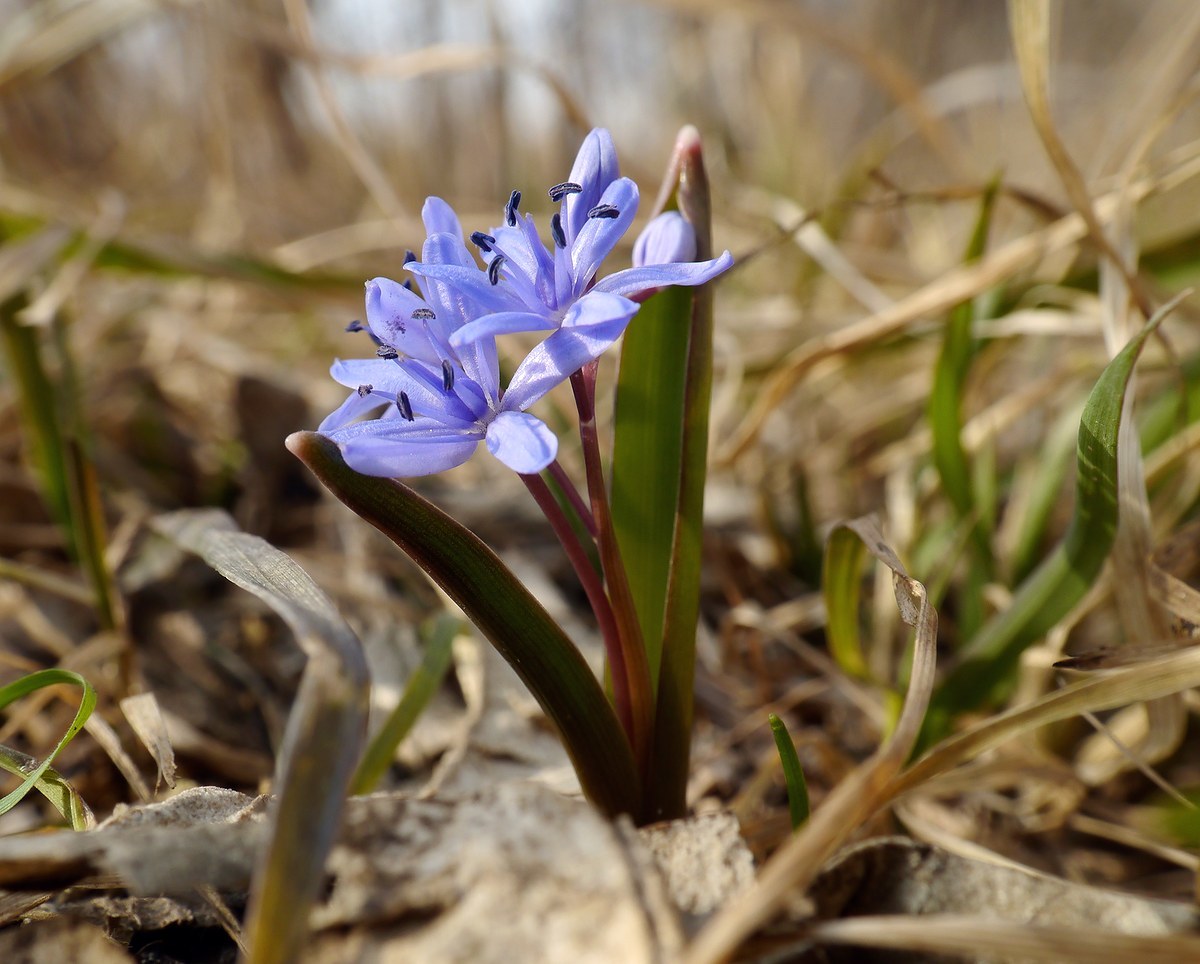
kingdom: Plantae
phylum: Tracheophyta
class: Liliopsida
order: Asparagales
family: Asparagaceae
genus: Scilla
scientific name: Scilla bifolia
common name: Alpine squill
